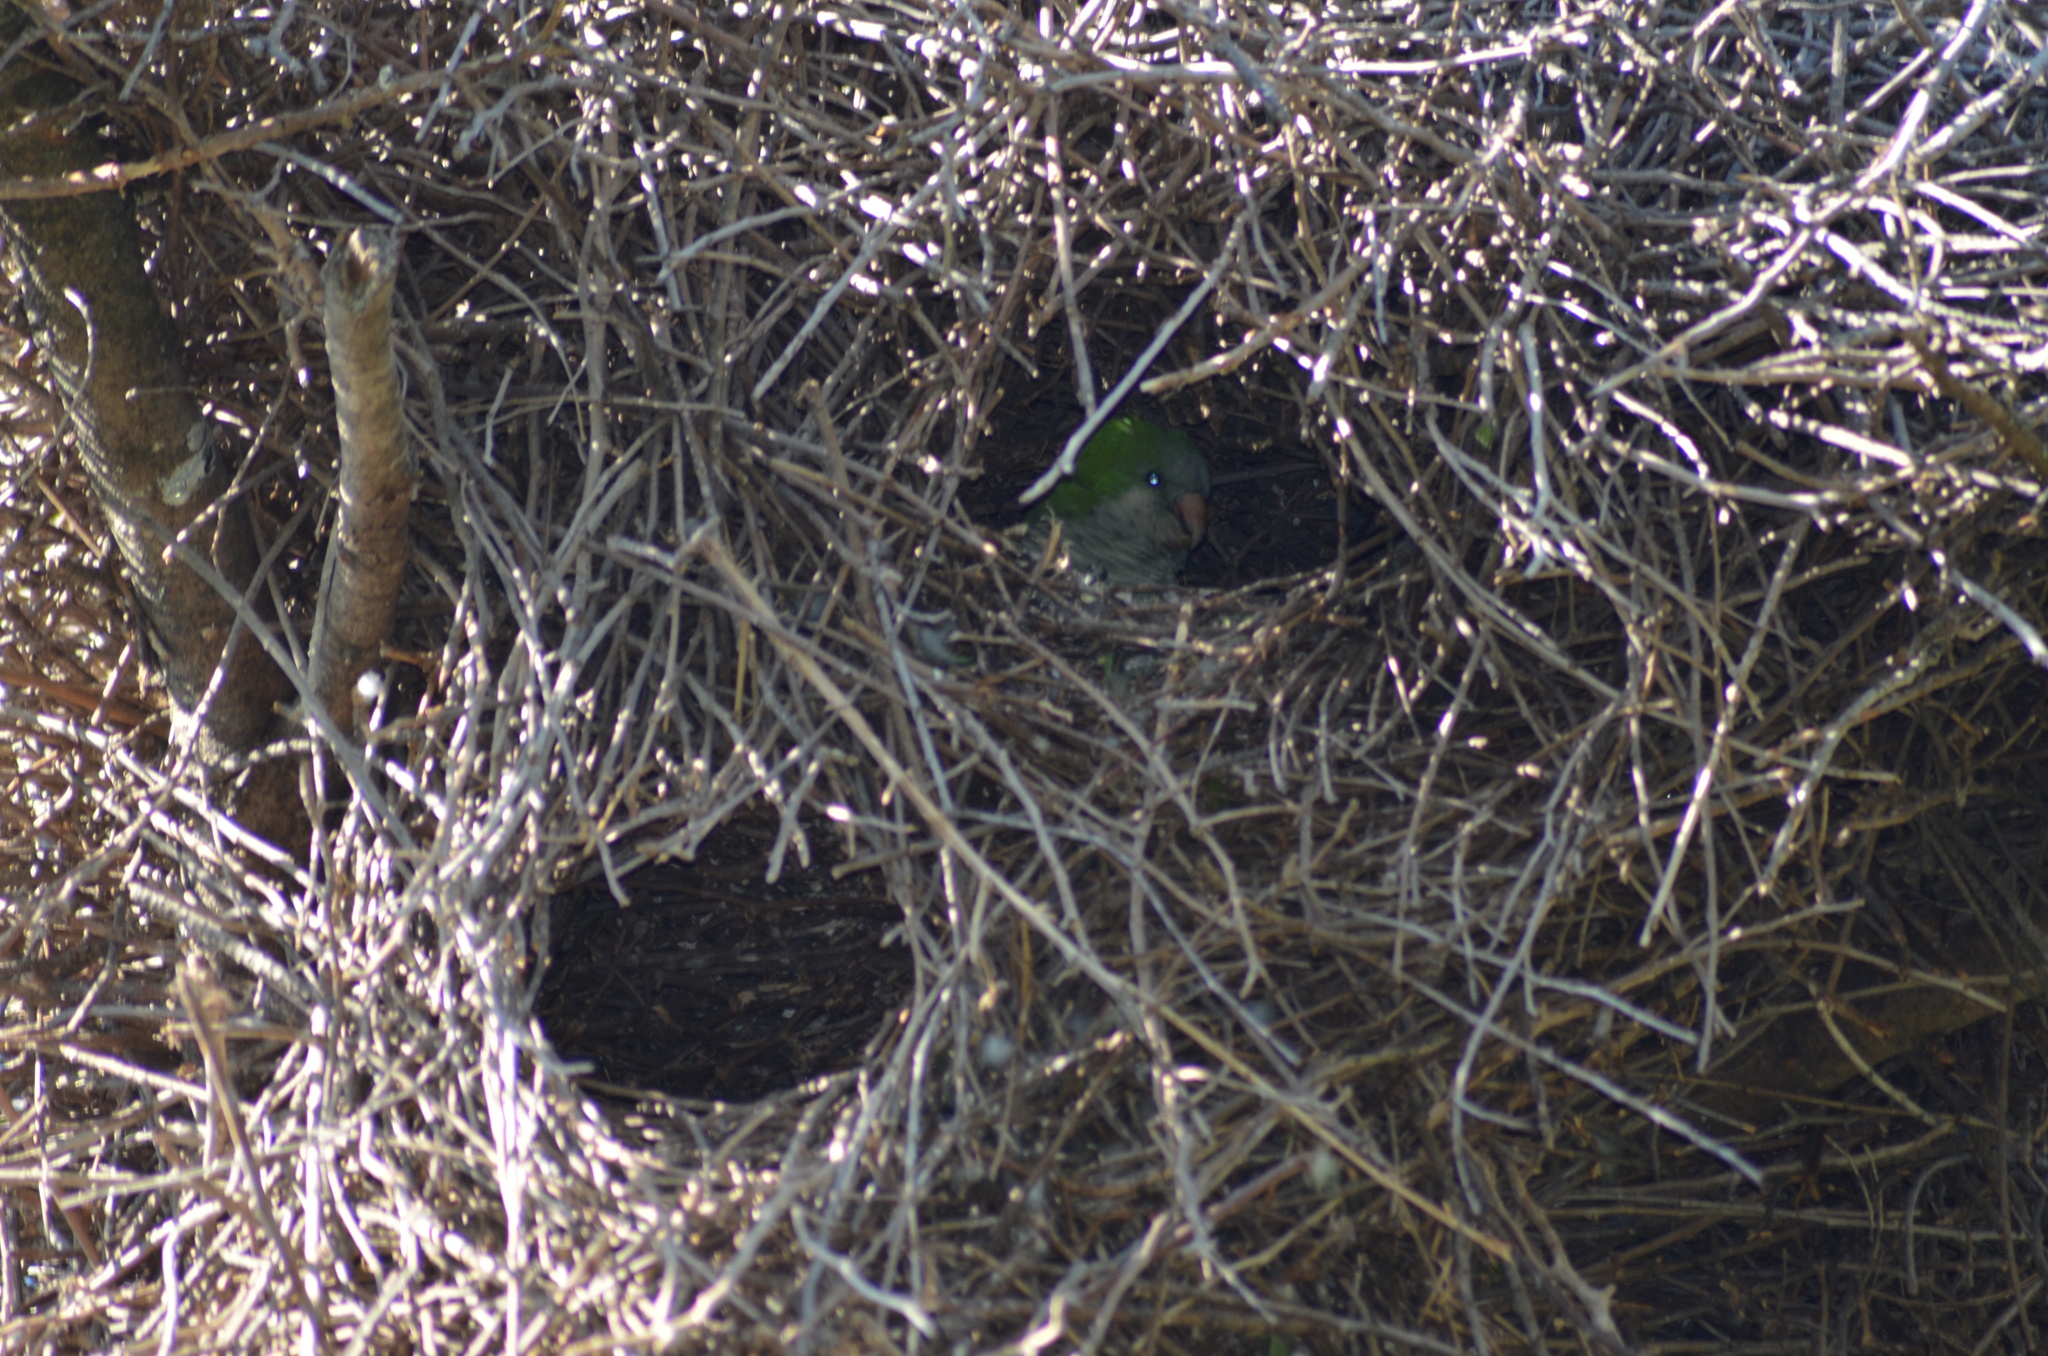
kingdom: Animalia
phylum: Chordata
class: Aves
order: Psittaciformes
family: Psittacidae
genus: Myiopsitta
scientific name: Myiopsitta monachus
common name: Monk parakeet
